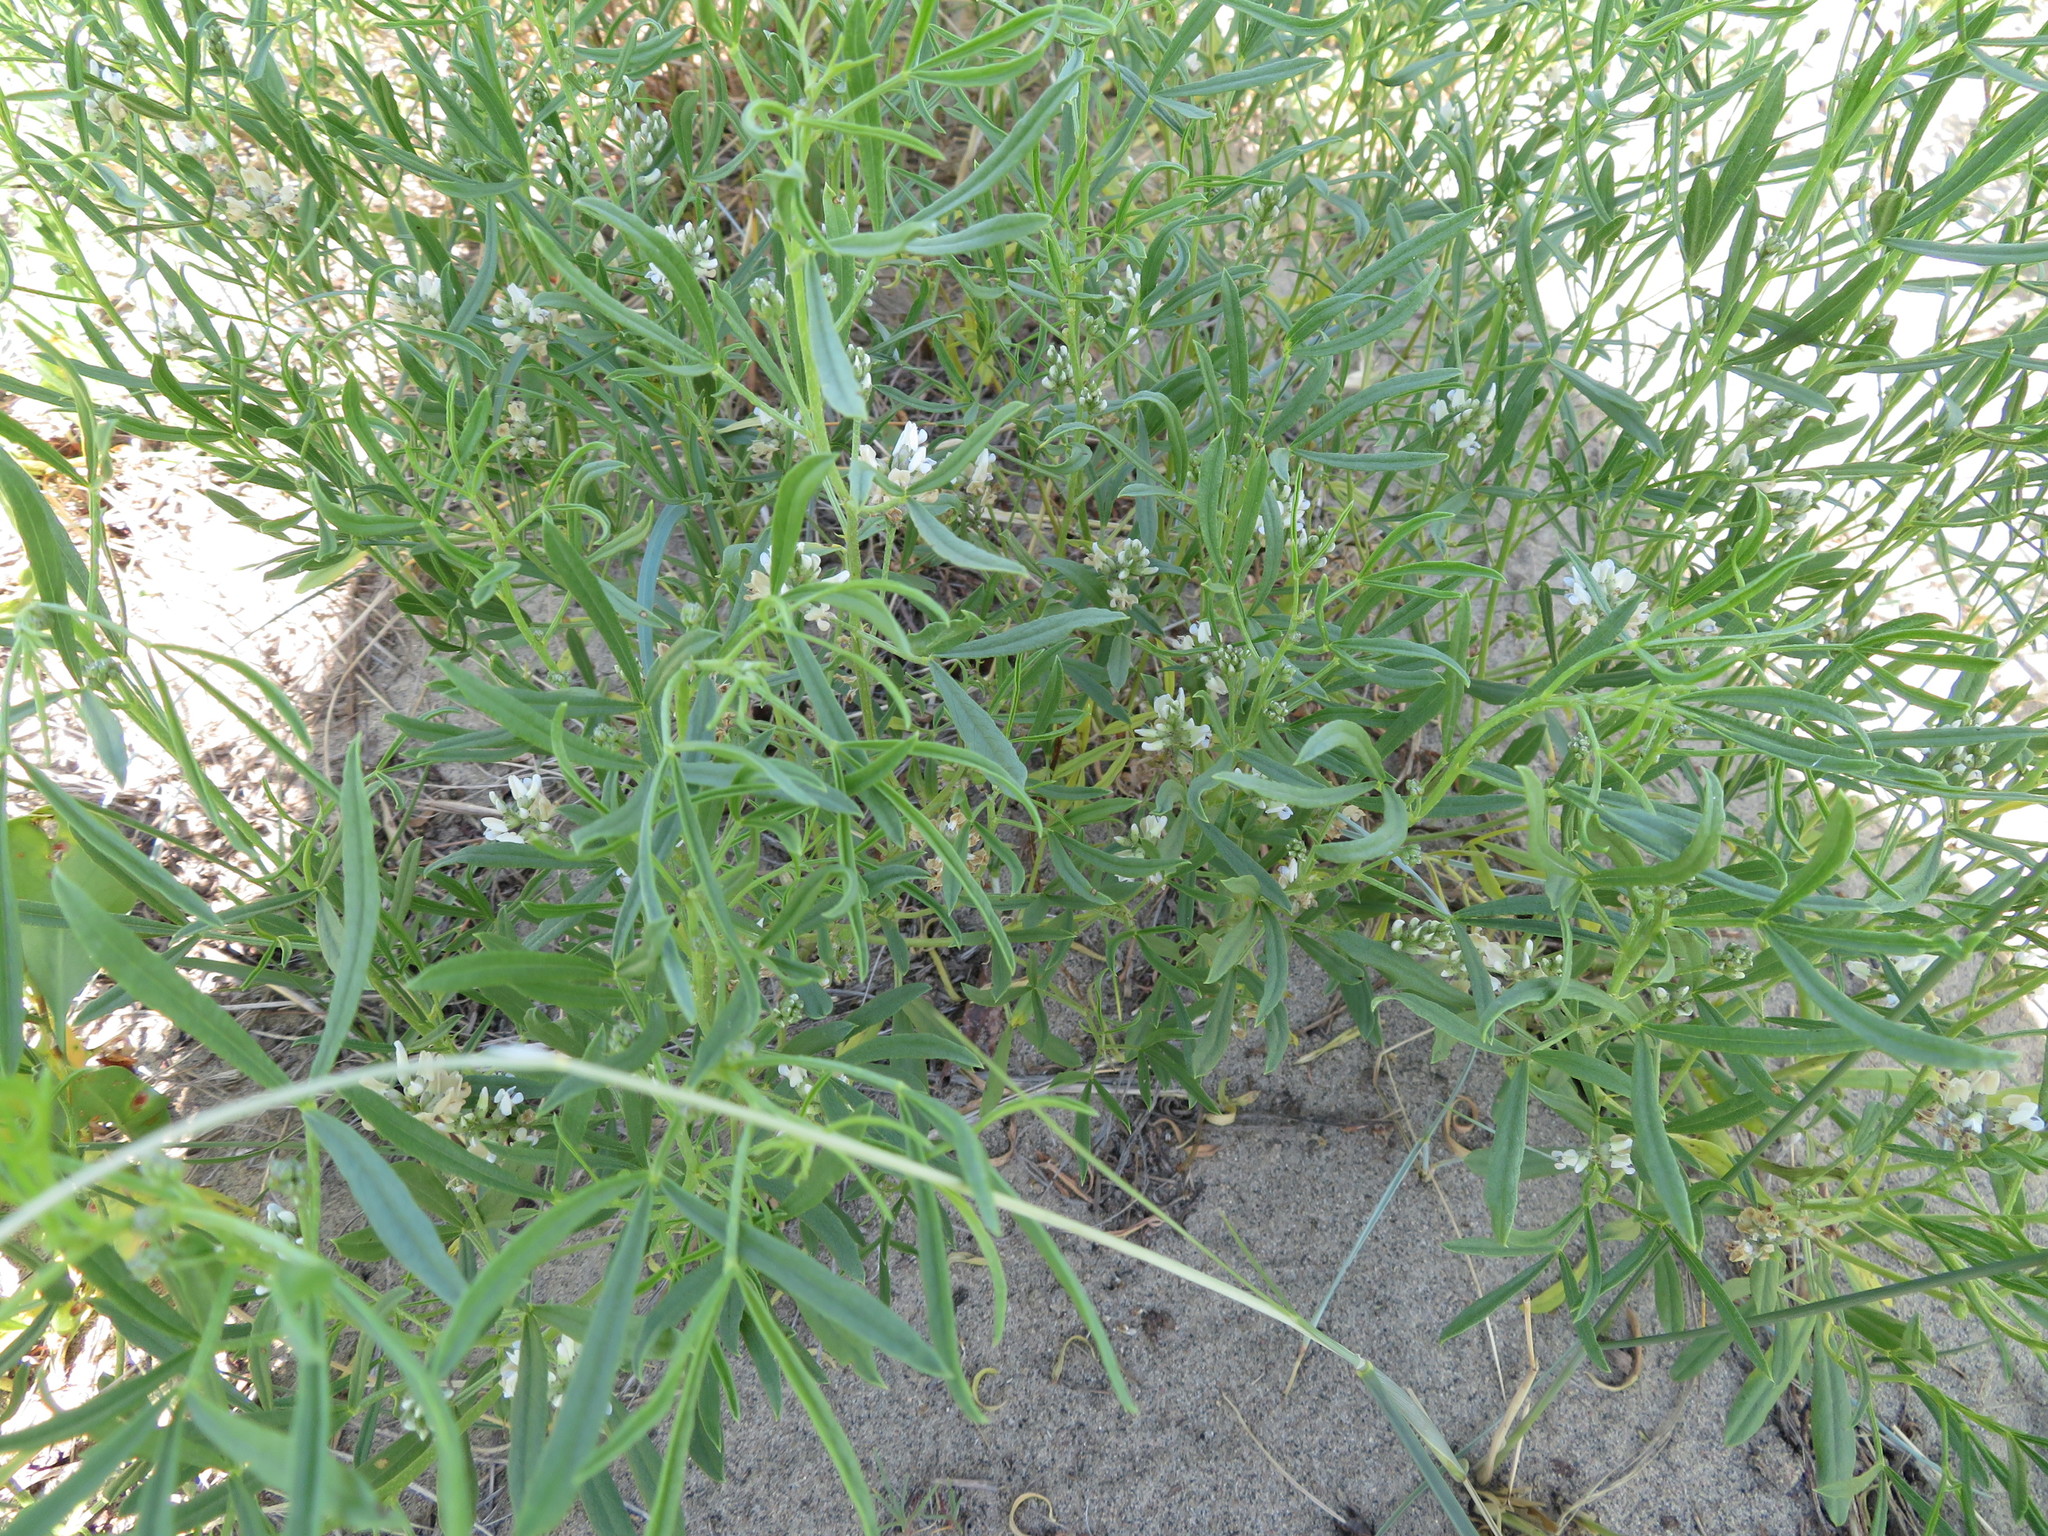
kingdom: Plantae
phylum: Tracheophyta
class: Magnoliopsida
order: Fabales
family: Fabaceae
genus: Ladeania
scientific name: Ladeania lanceolata
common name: Dune scurf-pea
